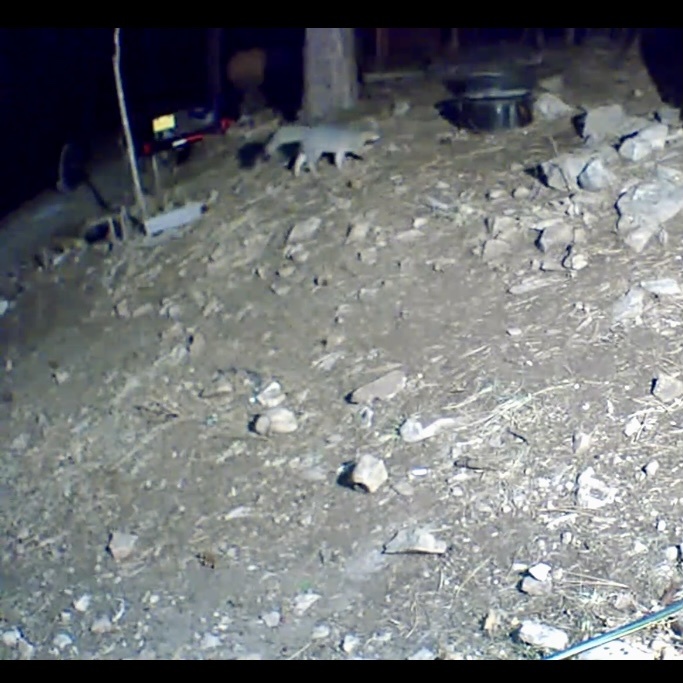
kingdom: Animalia
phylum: Chordata
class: Mammalia
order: Carnivora
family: Canidae
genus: Urocyon
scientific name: Urocyon cinereoargenteus
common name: Gray fox
